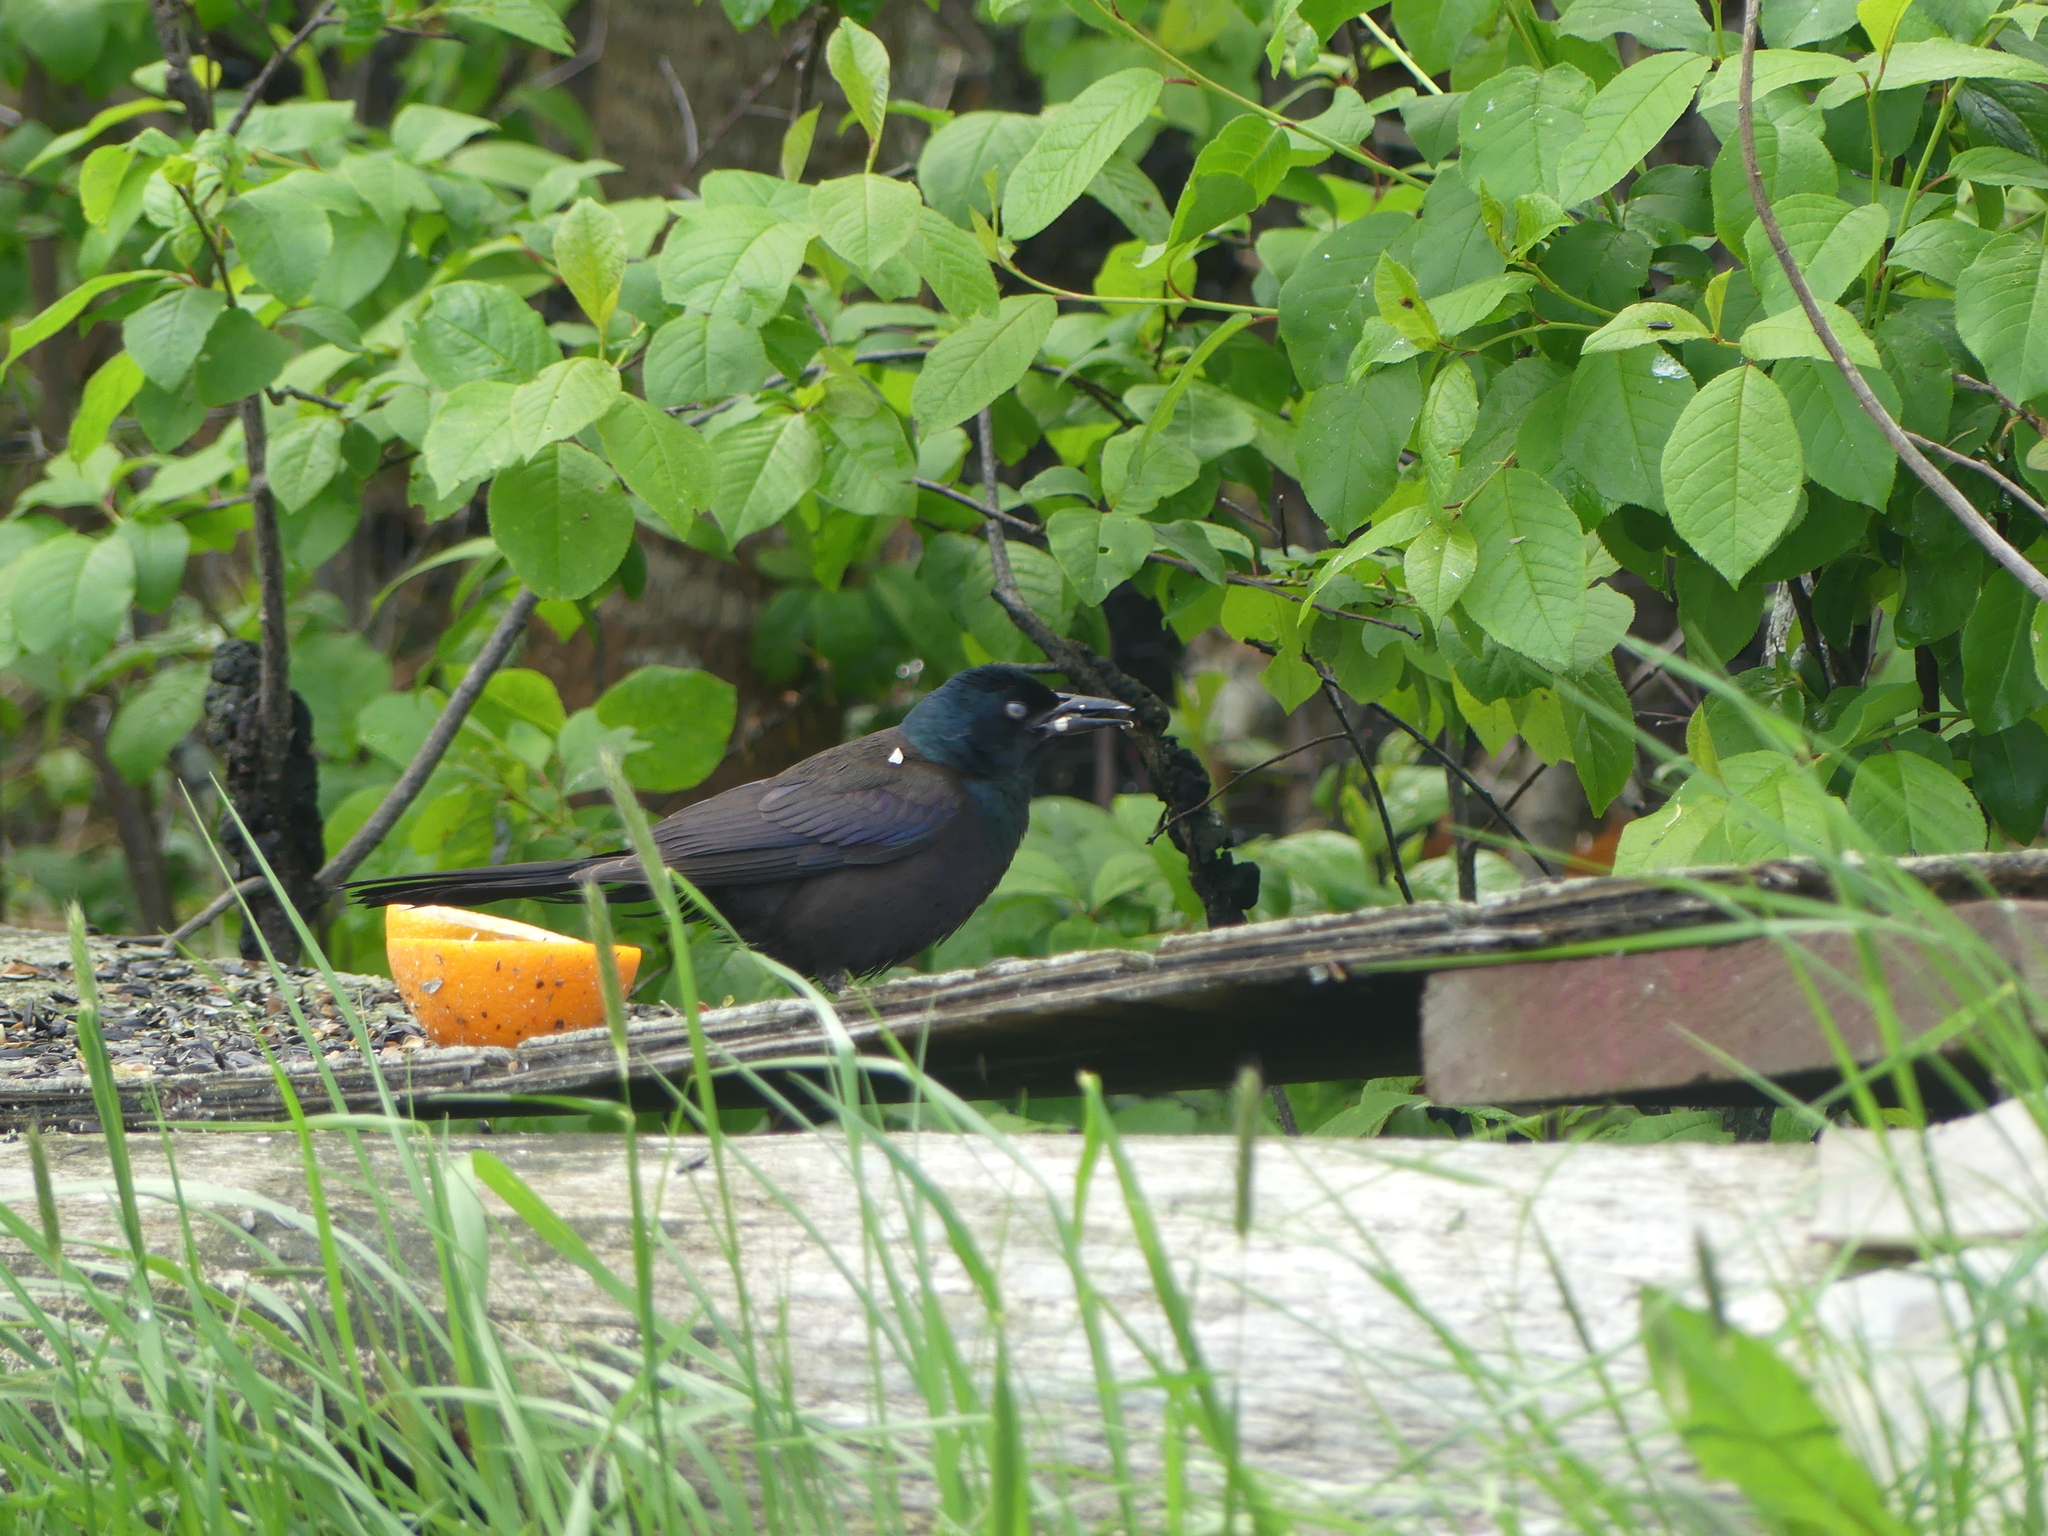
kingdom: Animalia
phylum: Chordata
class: Aves
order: Passeriformes
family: Icteridae
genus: Quiscalus
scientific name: Quiscalus quiscula
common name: Common grackle
